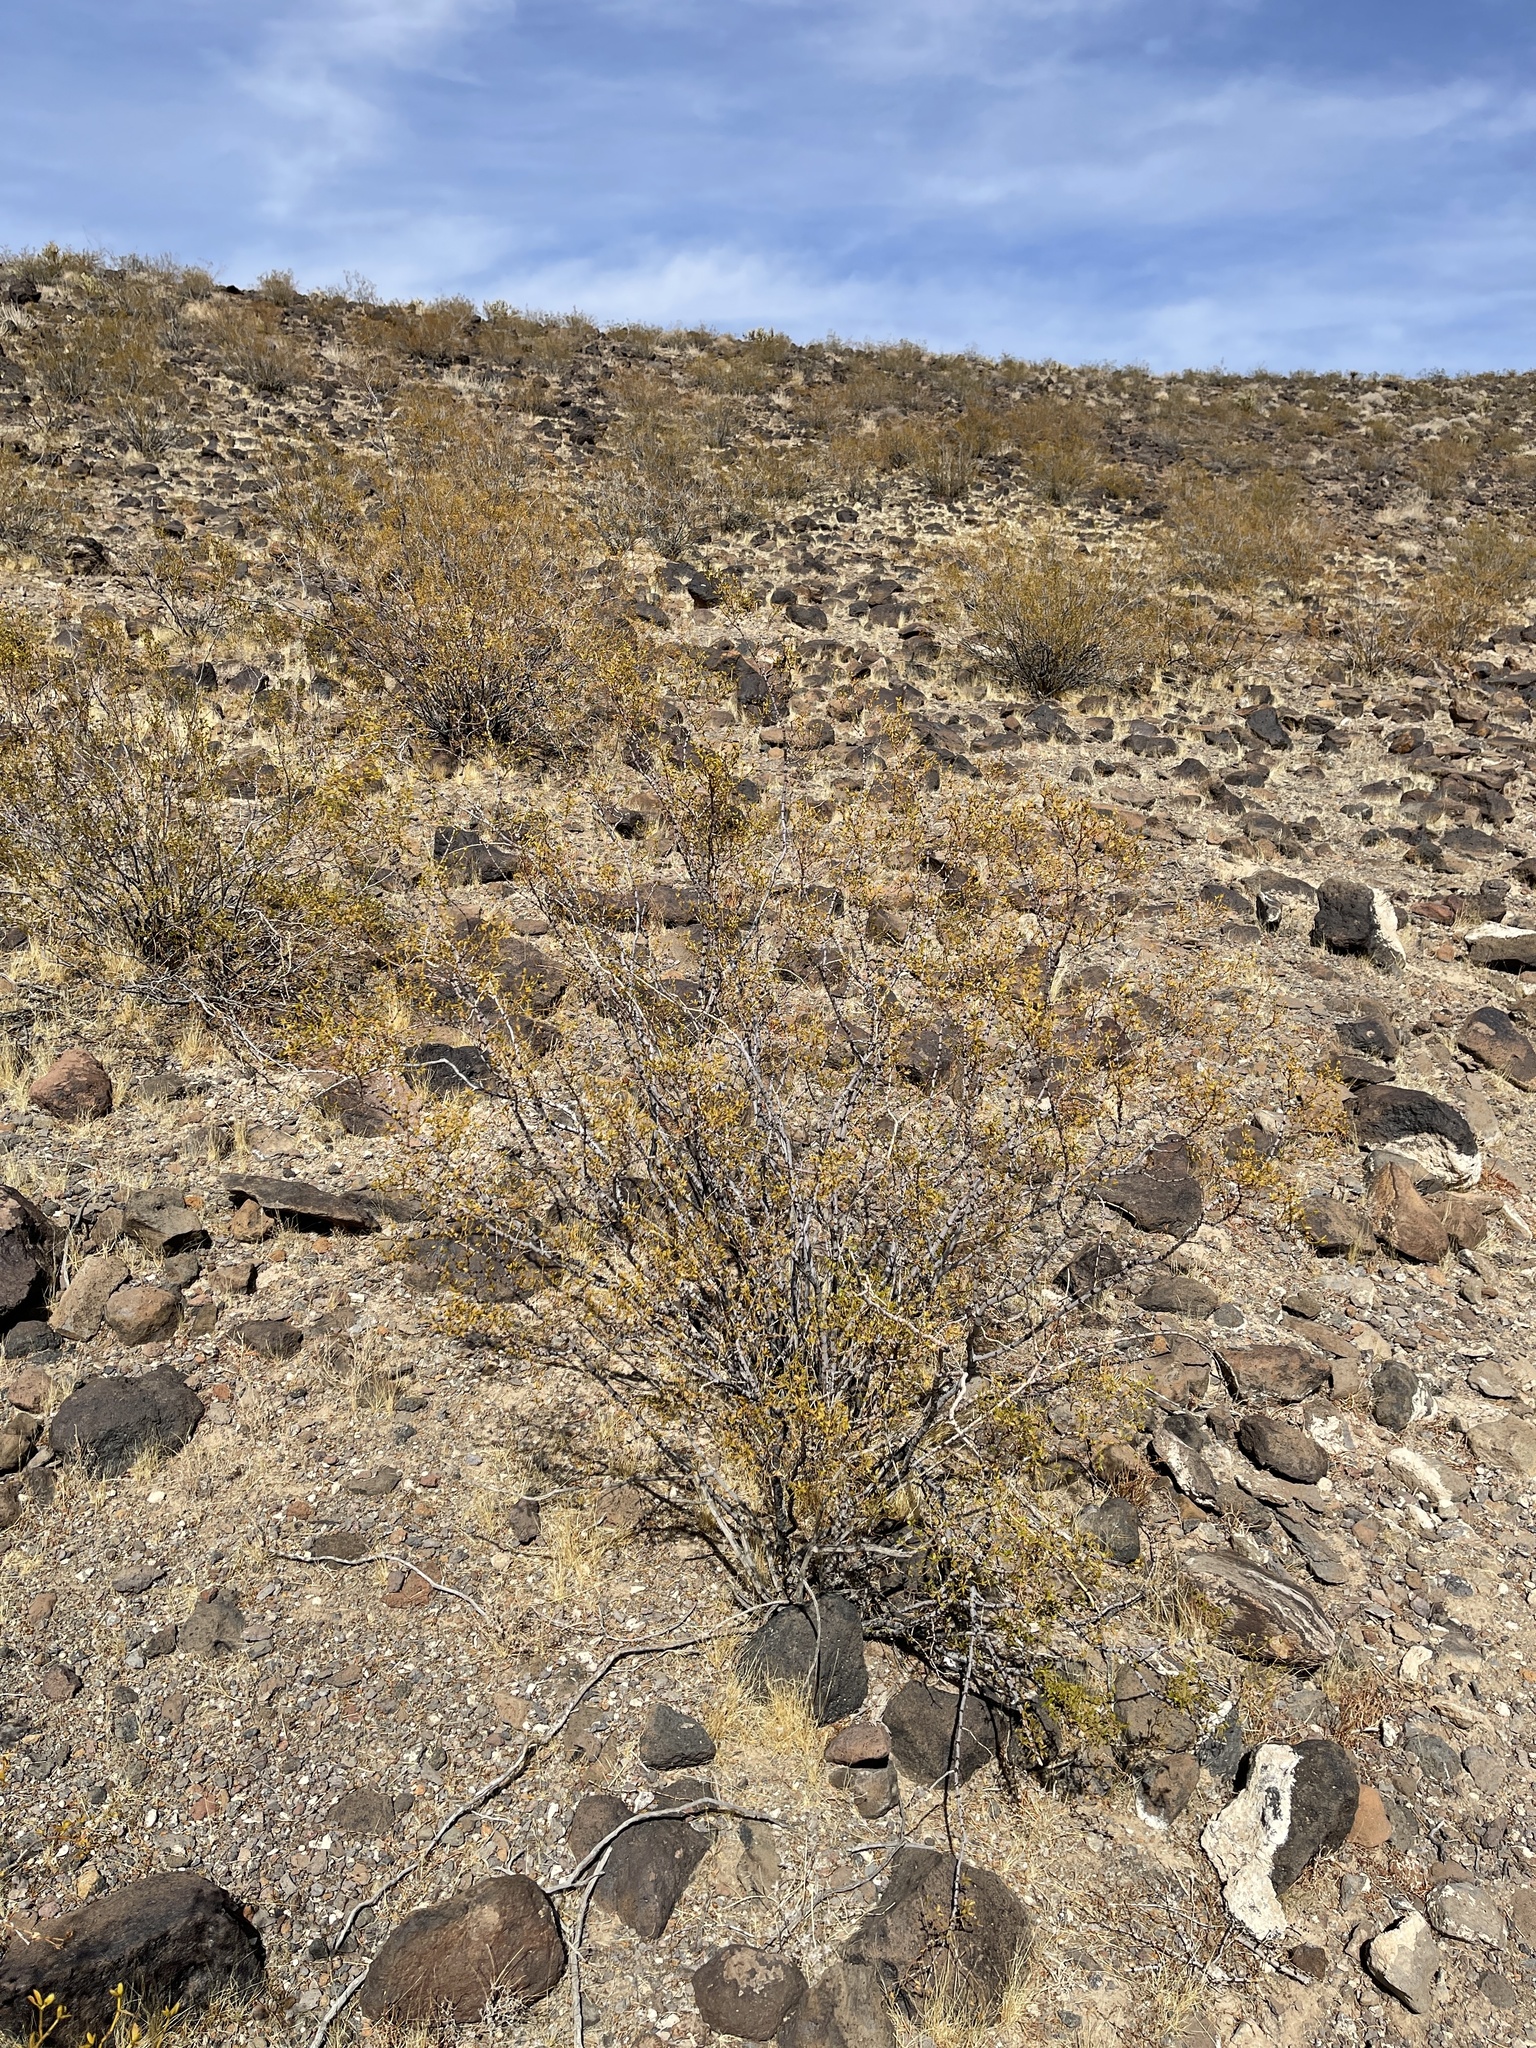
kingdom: Plantae
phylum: Tracheophyta
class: Magnoliopsida
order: Zygophyllales
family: Zygophyllaceae
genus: Larrea
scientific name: Larrea tridentata
